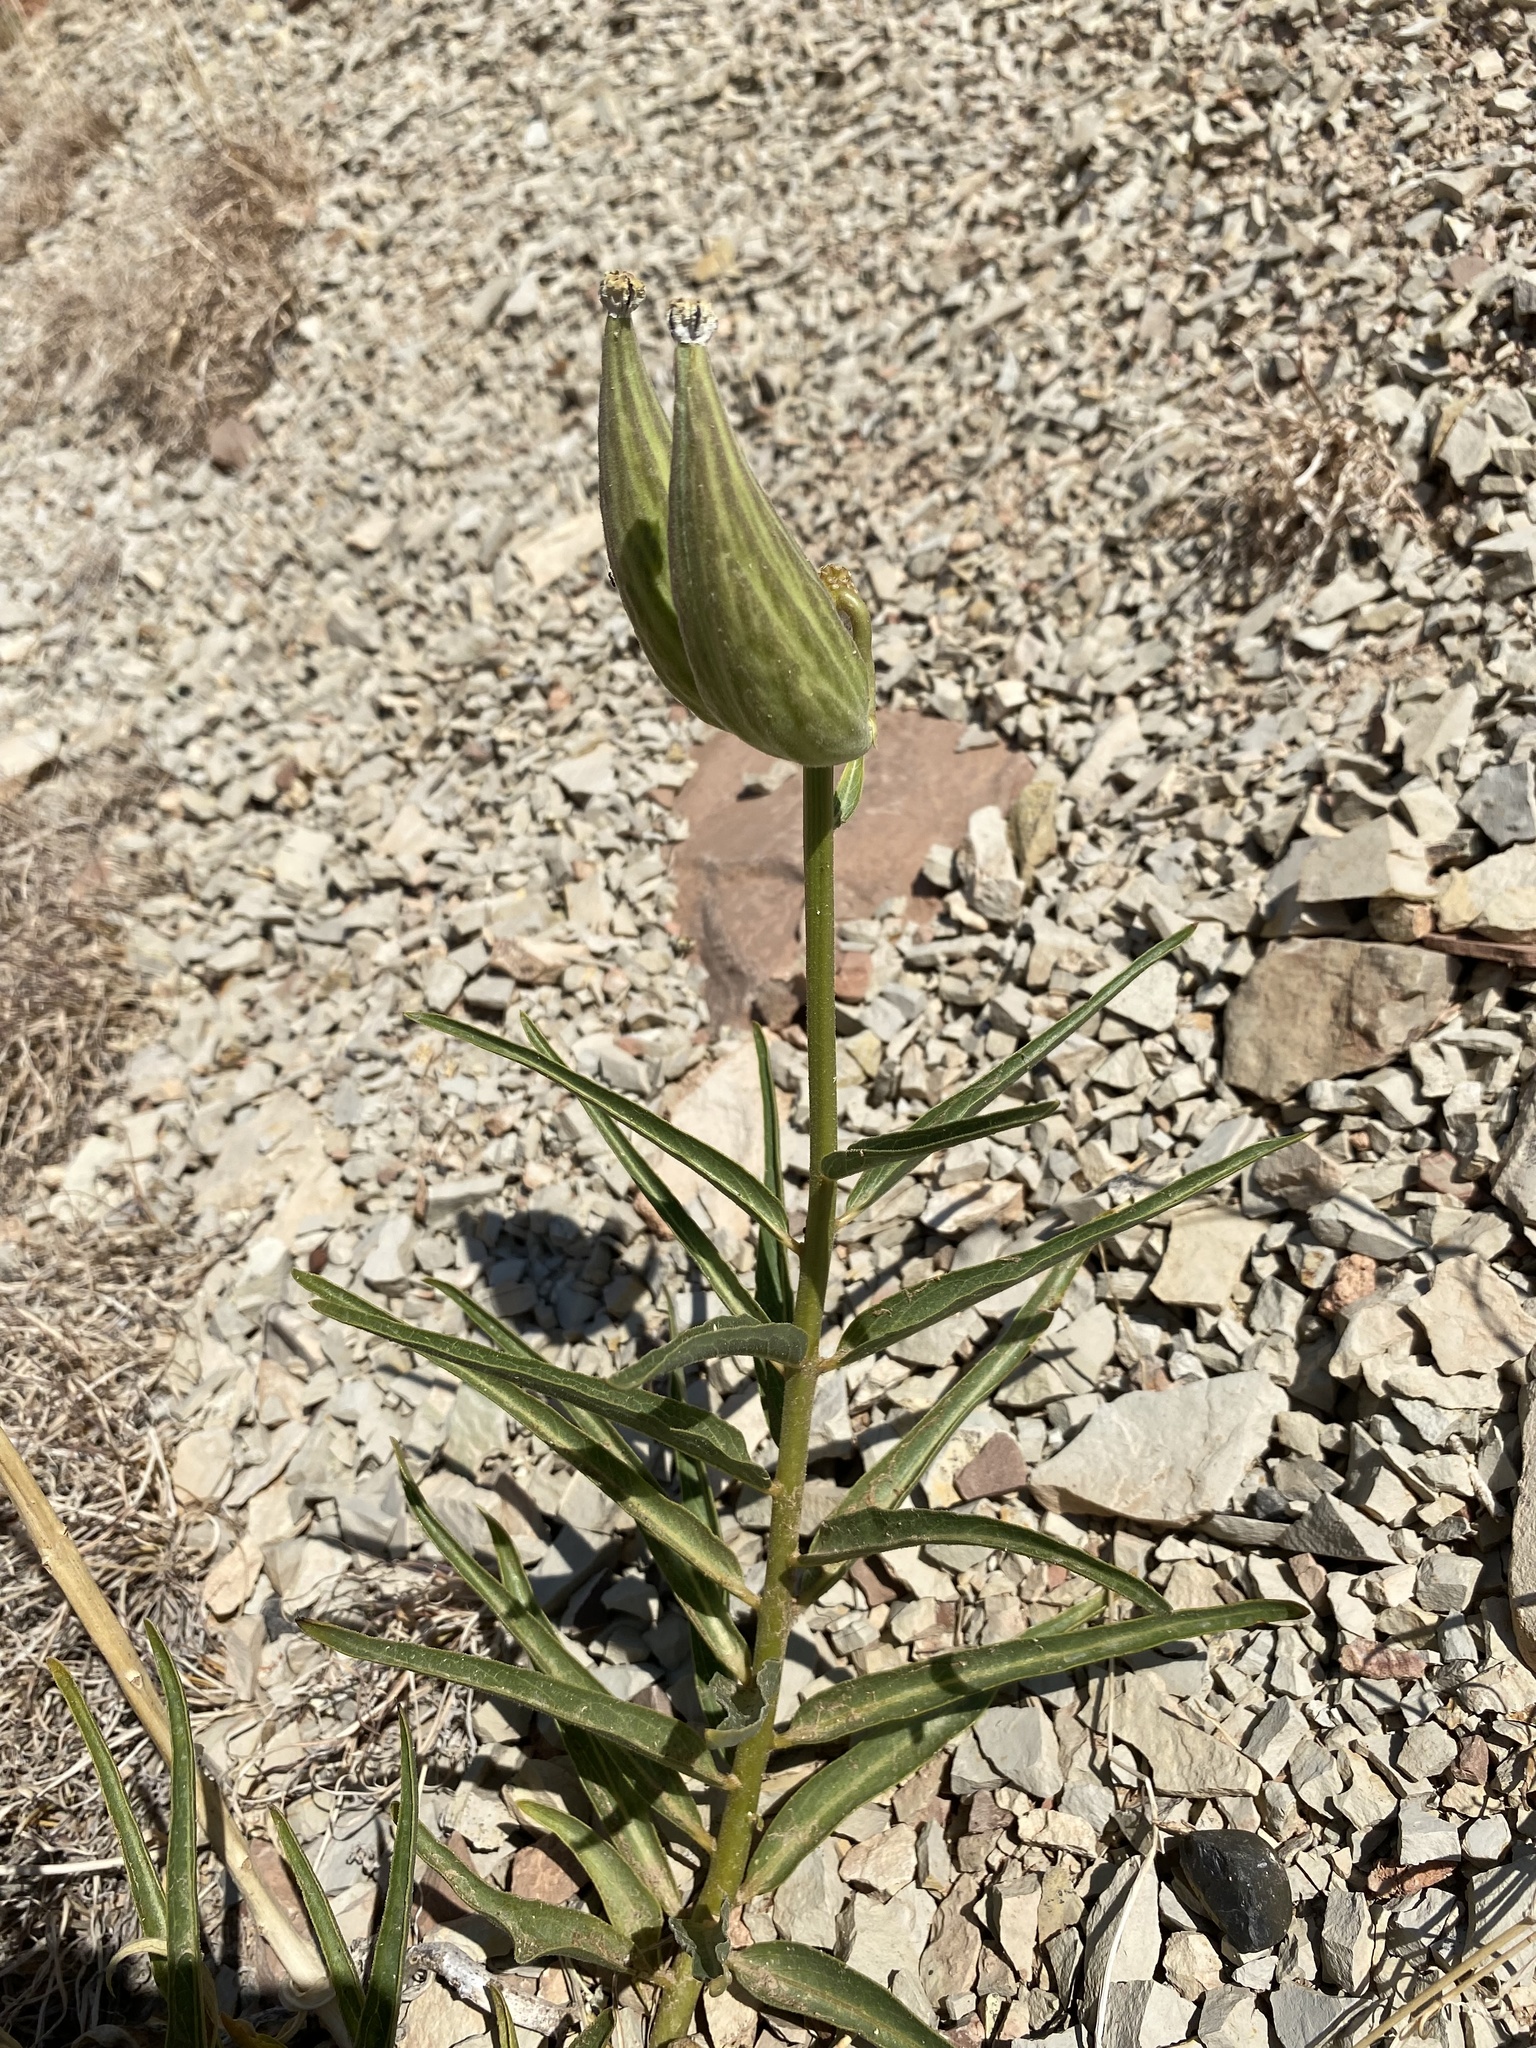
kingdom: Plantae
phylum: Tracheophyta
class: Magnoliopsida
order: Gentianales
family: Apocynaceae
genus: Asclepias
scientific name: Asclepias asperula
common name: Antelope horns
